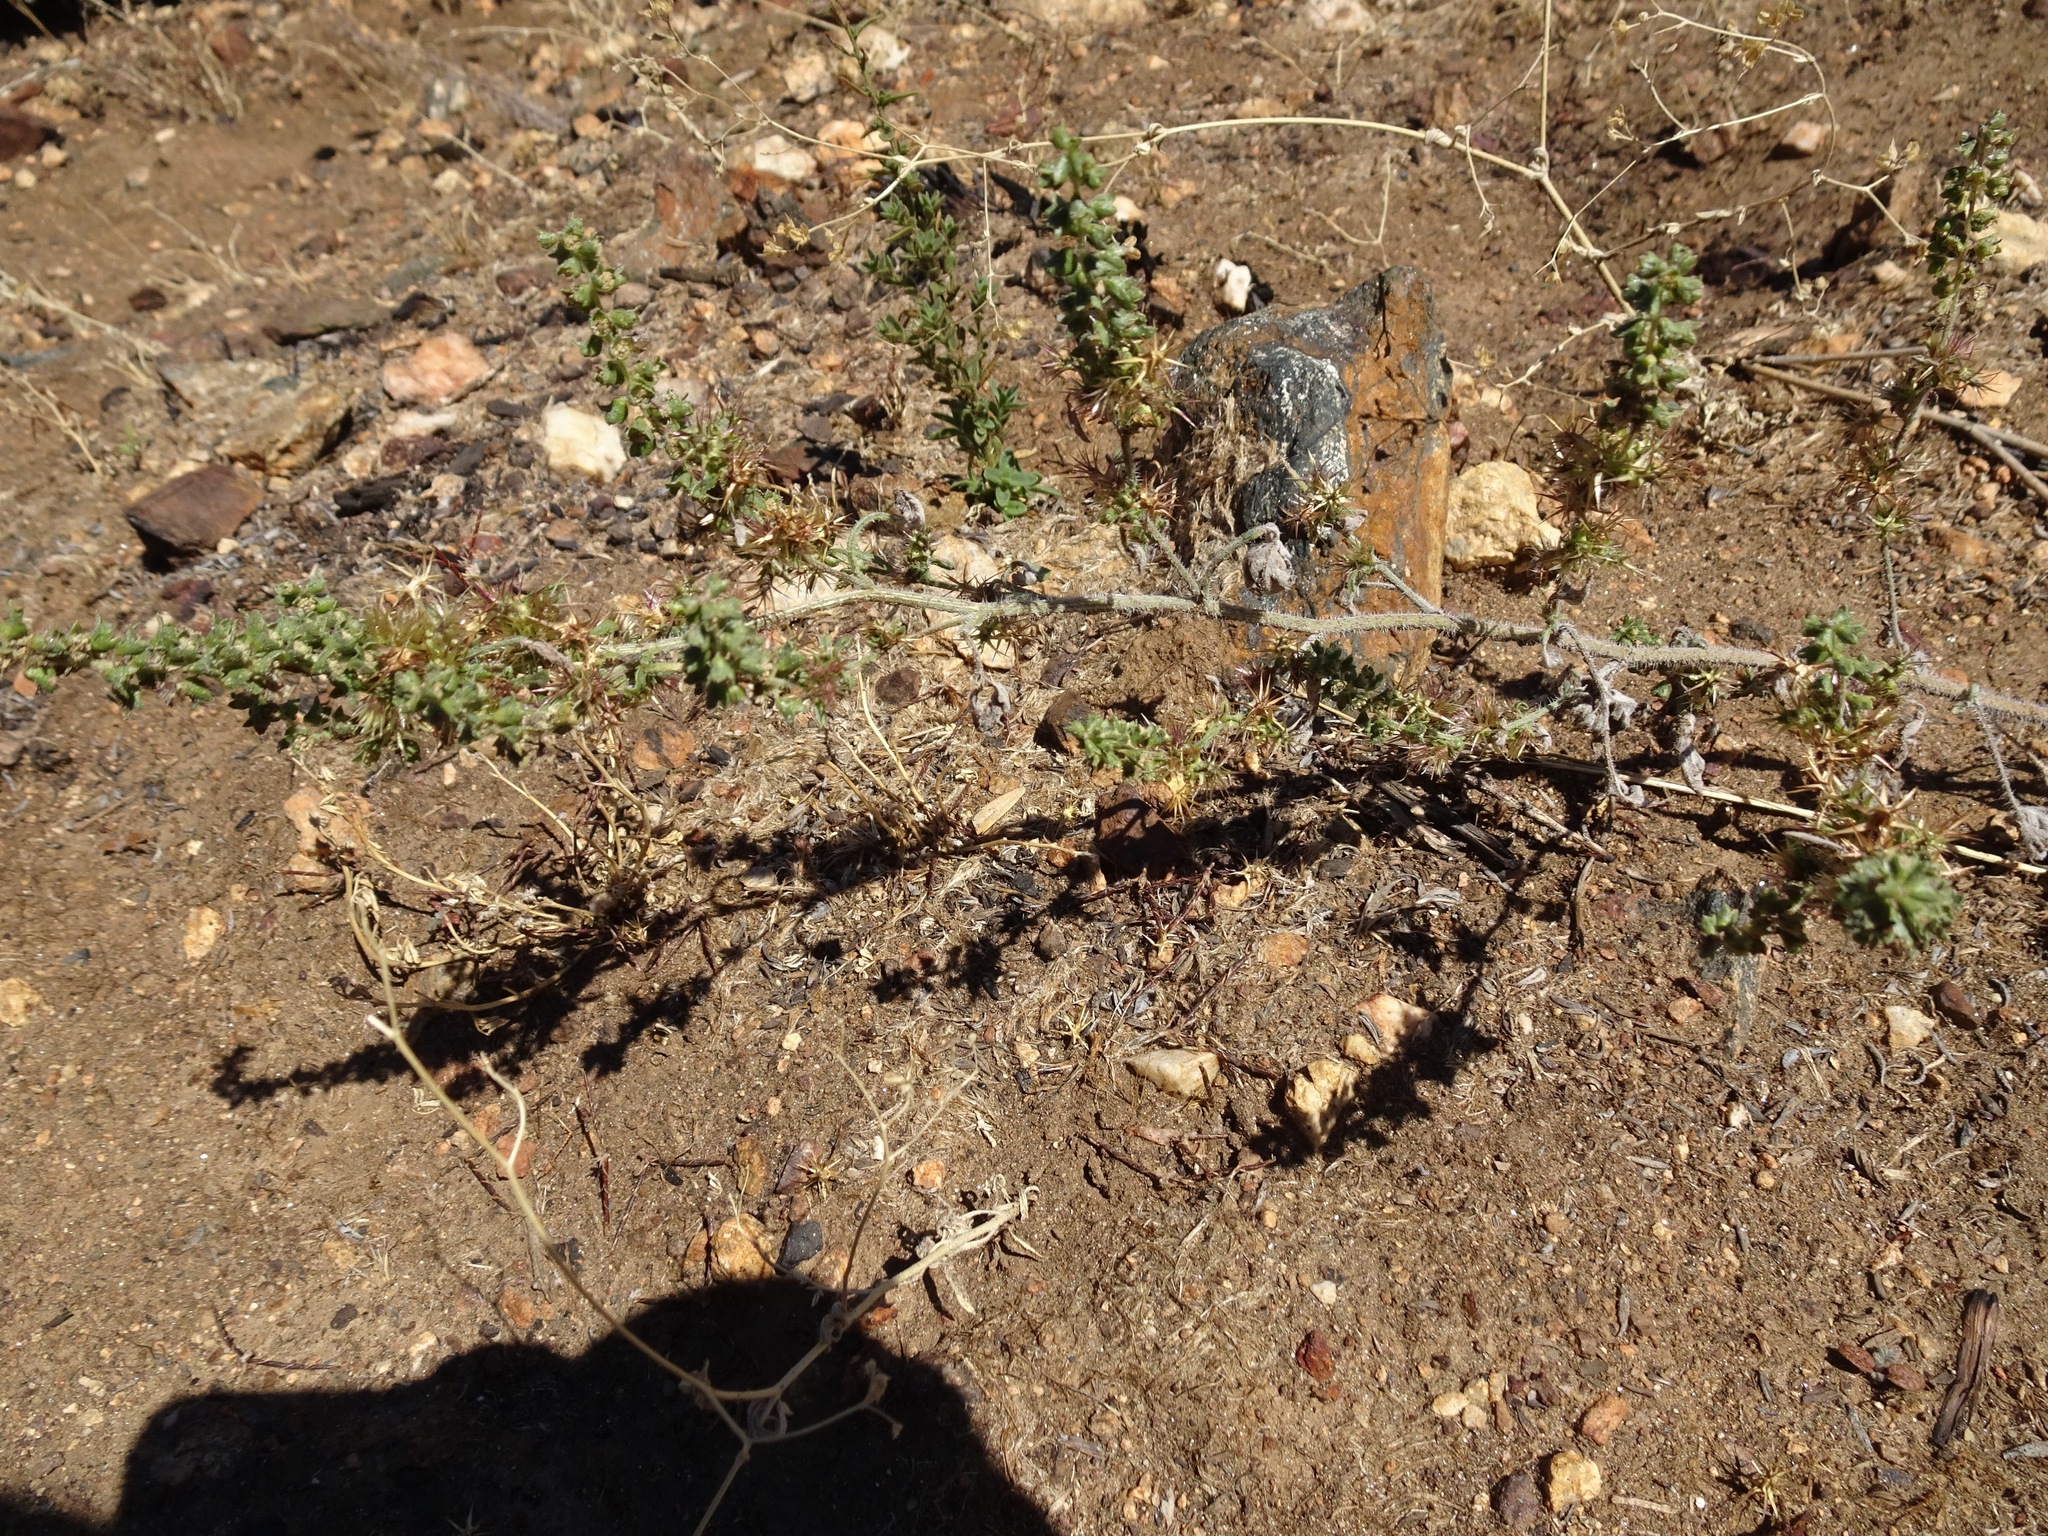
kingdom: Plantae
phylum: Tracheophyta
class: Magnoliopsida
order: Asterales
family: Asteraceae
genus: Ambrosia
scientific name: Ambrosia acanthicarpa
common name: Hooker's bur ragweed
